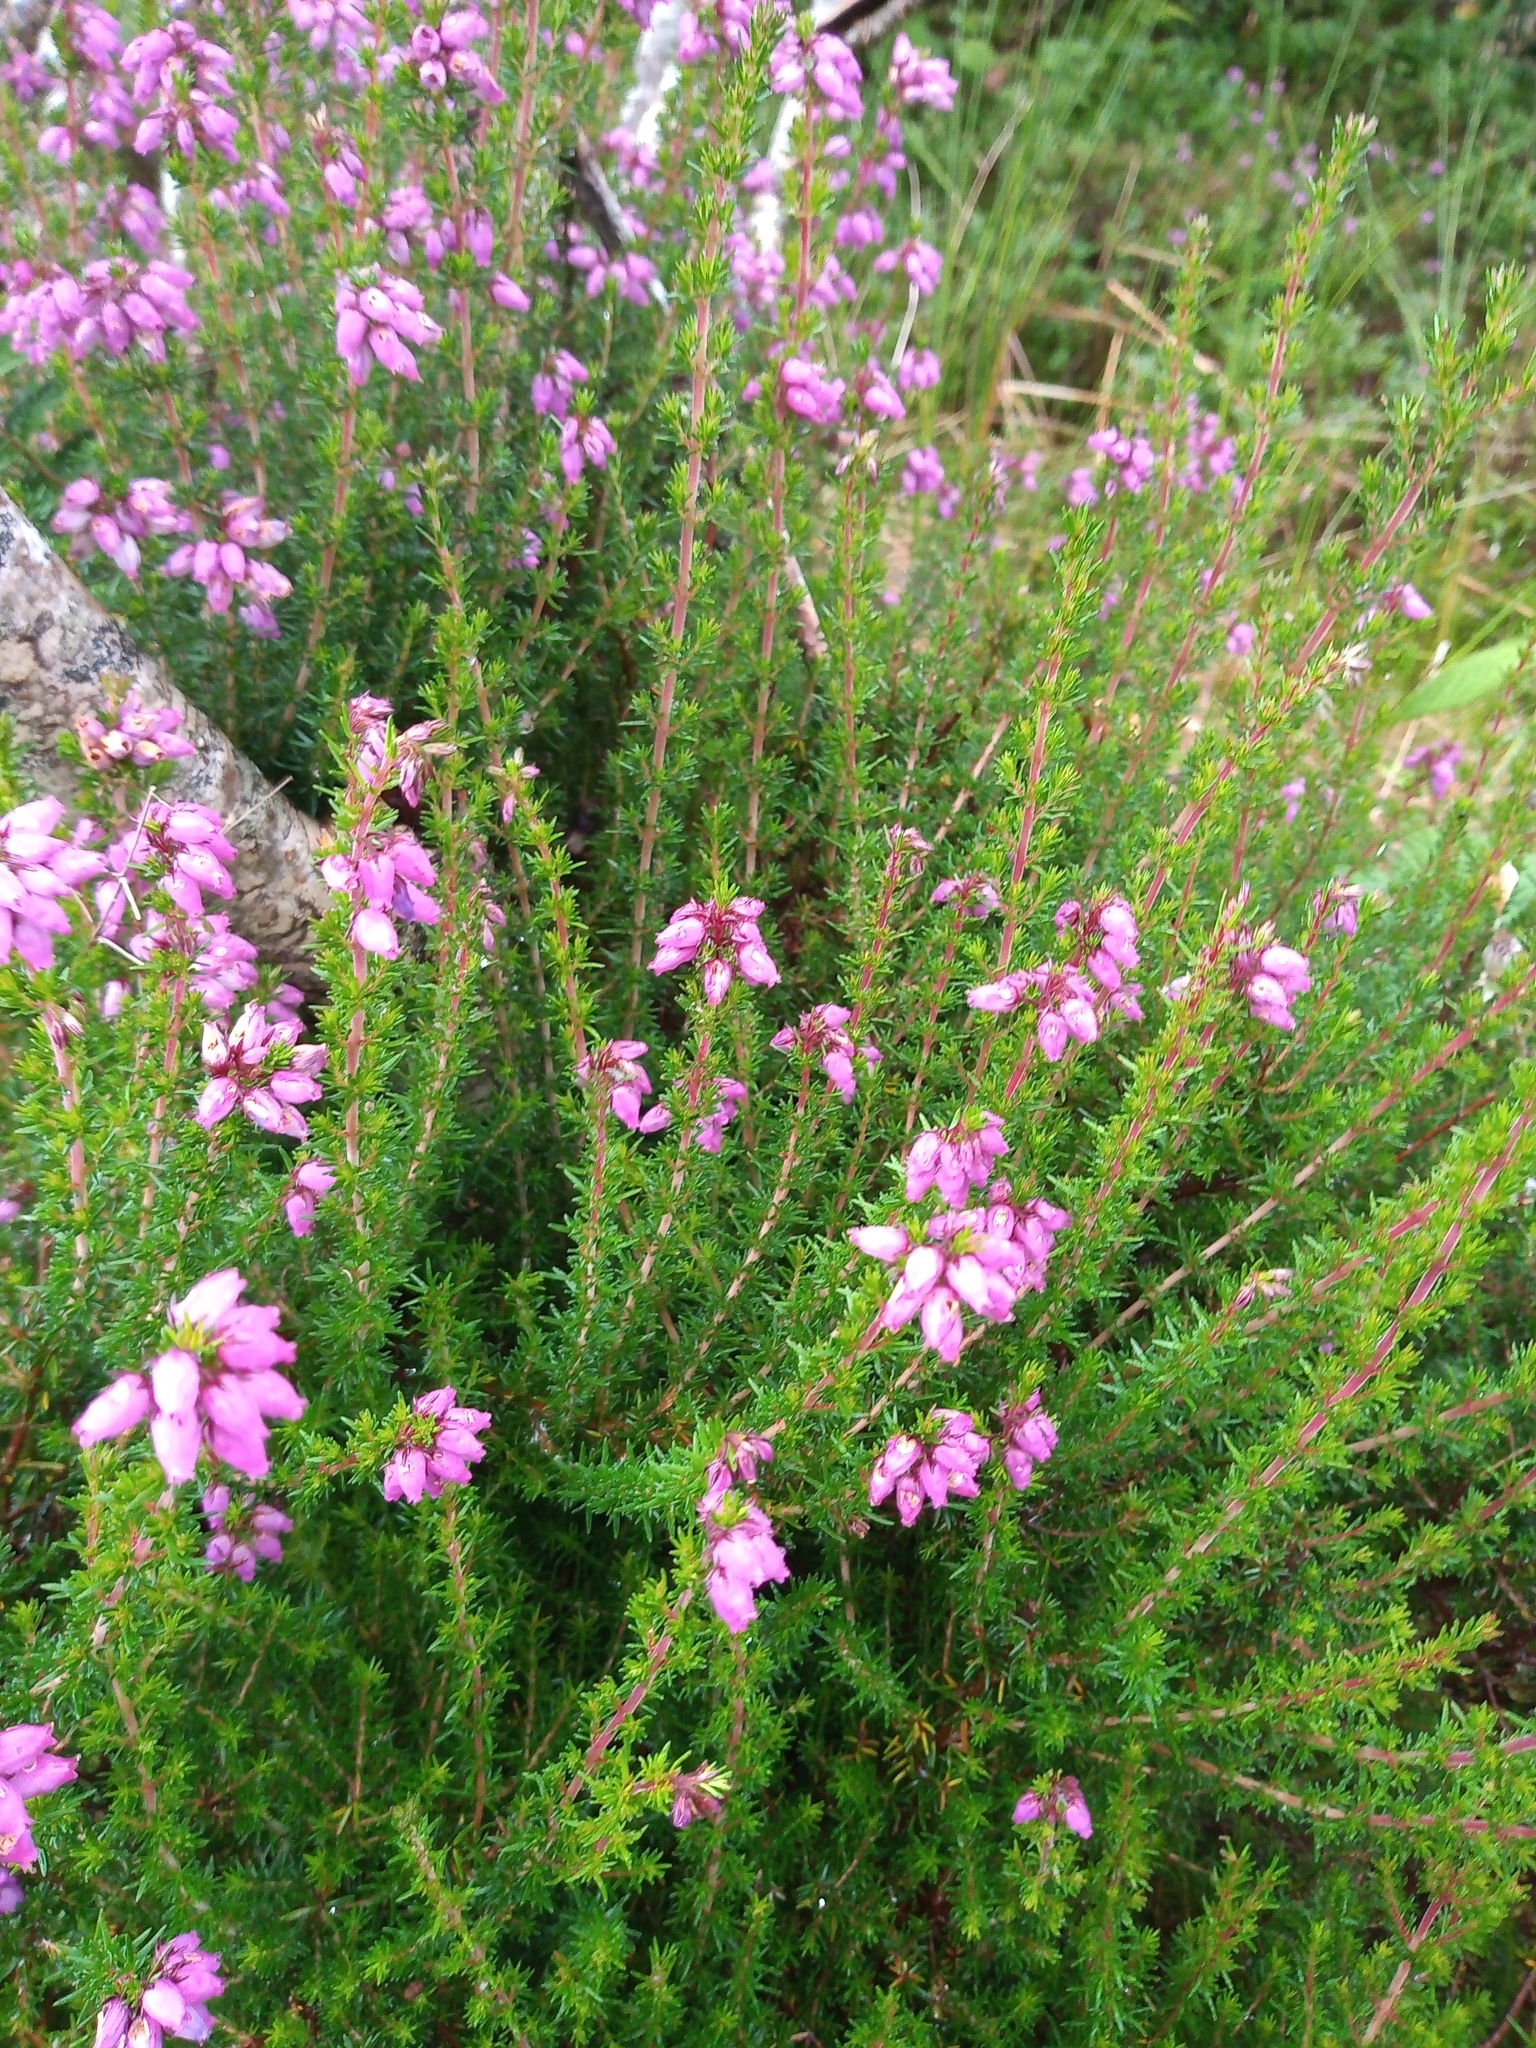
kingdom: Plantae
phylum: Tracheophyta
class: Magnoliopsida
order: Ericales
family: Ericaceae
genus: Erica
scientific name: Erica cinerea
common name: Bell heather
